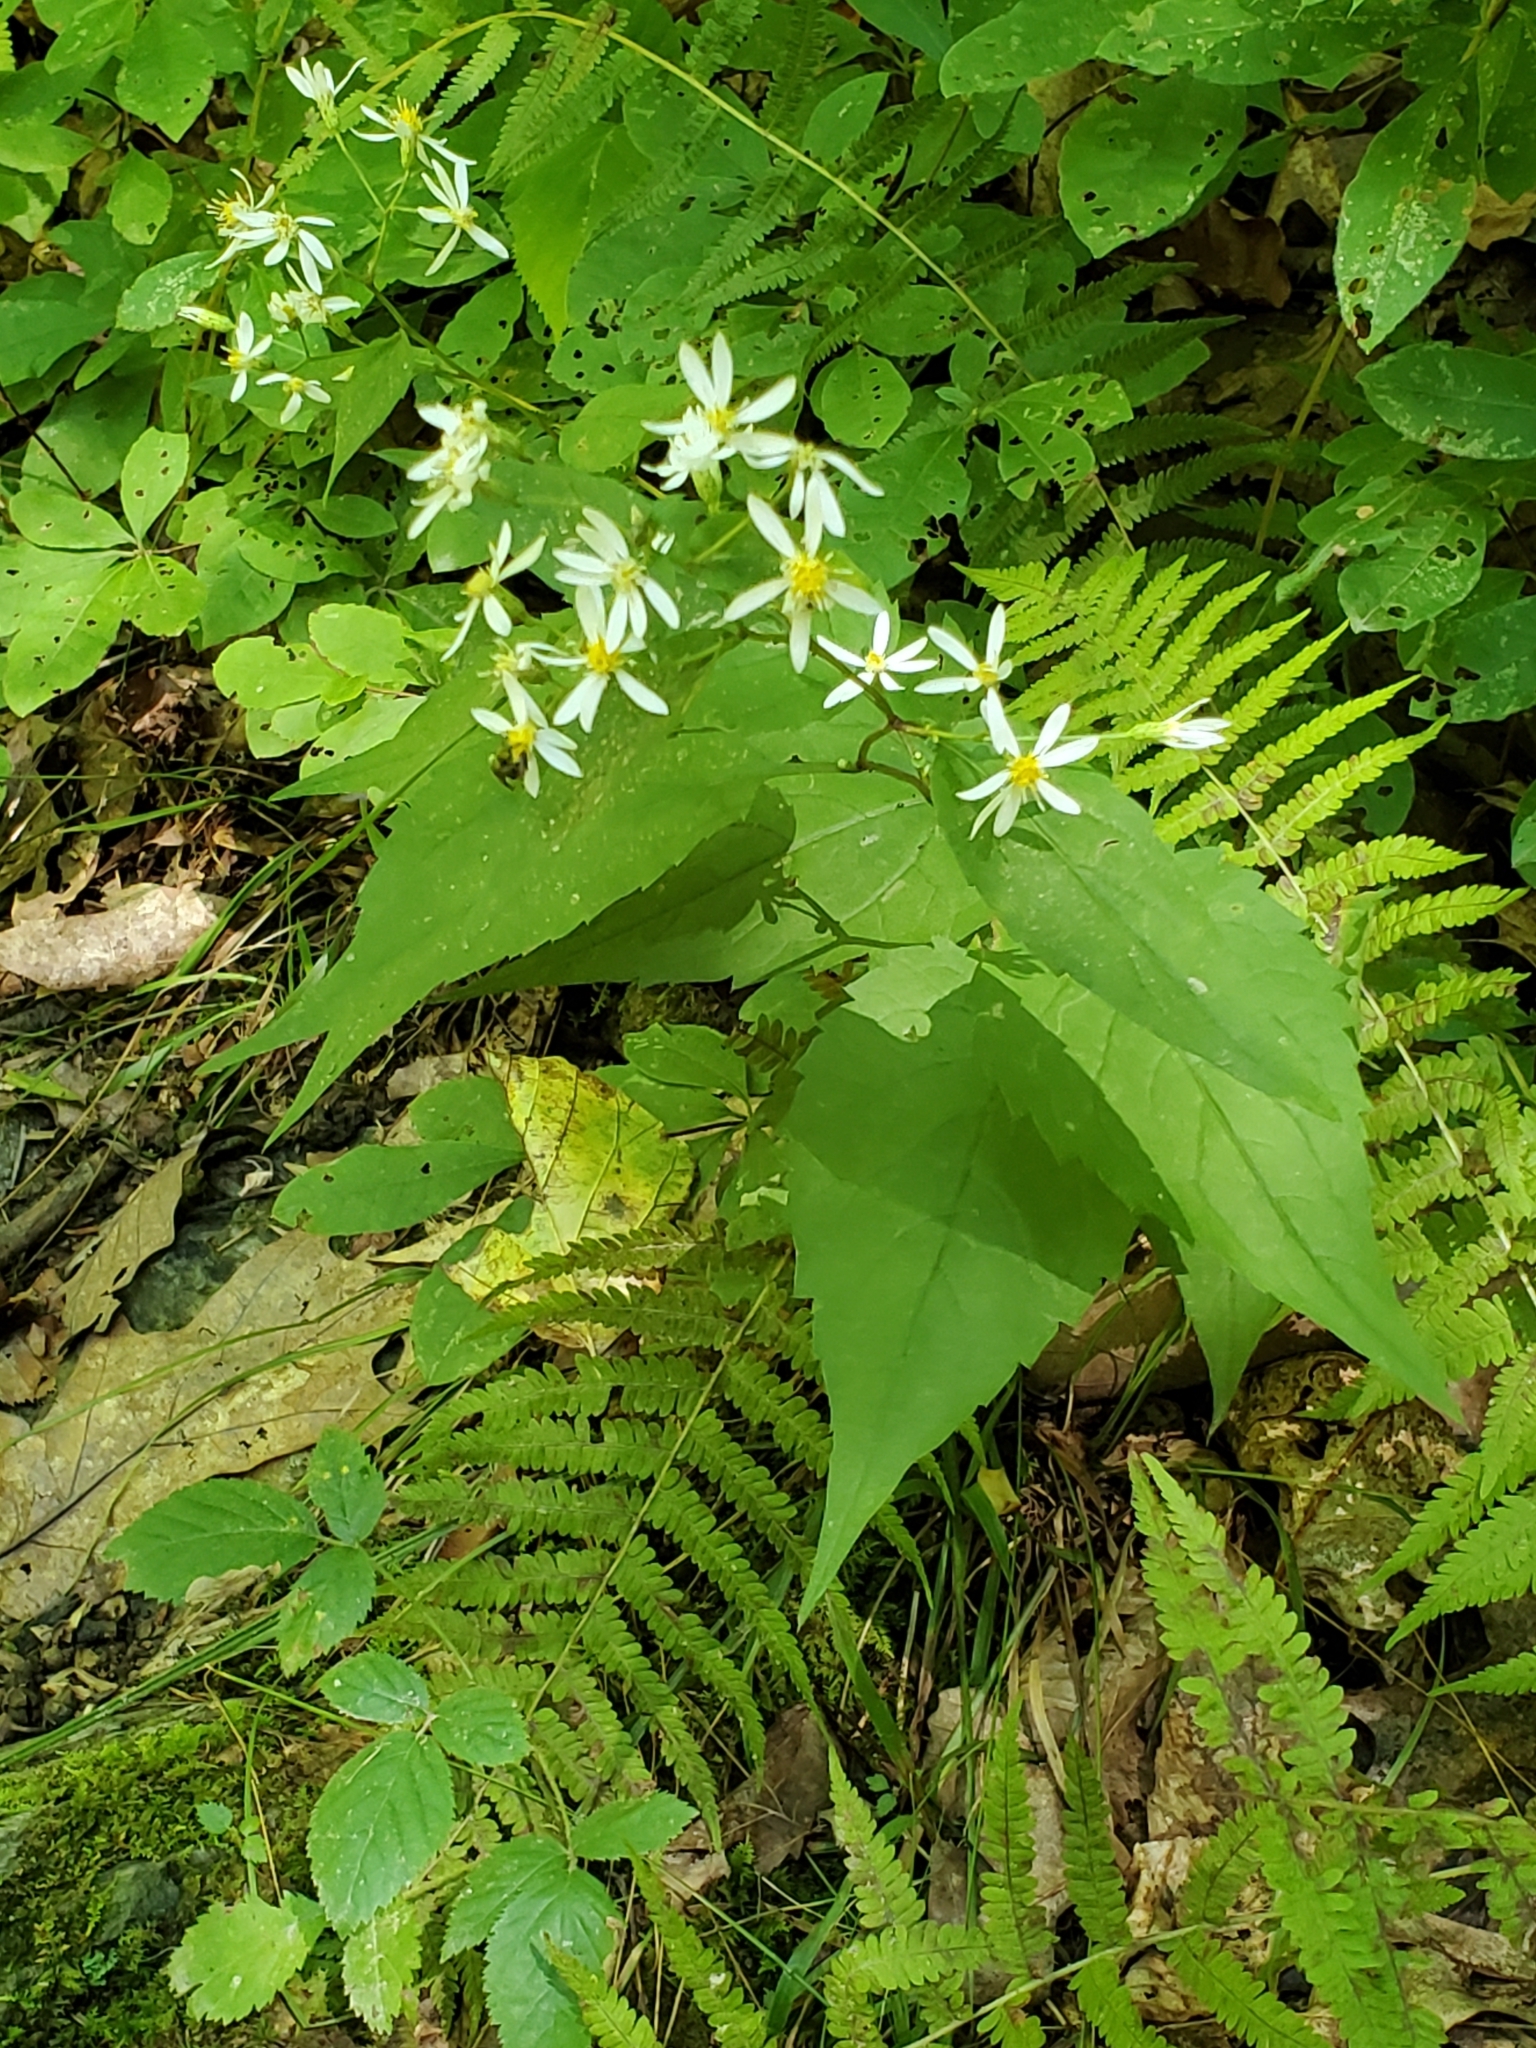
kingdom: Plantae
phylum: Tracheophyta
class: Magnoliopsida
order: Asterales
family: Asteraceae
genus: Eurybia
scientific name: Eurybia divaricata
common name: White wood aster
